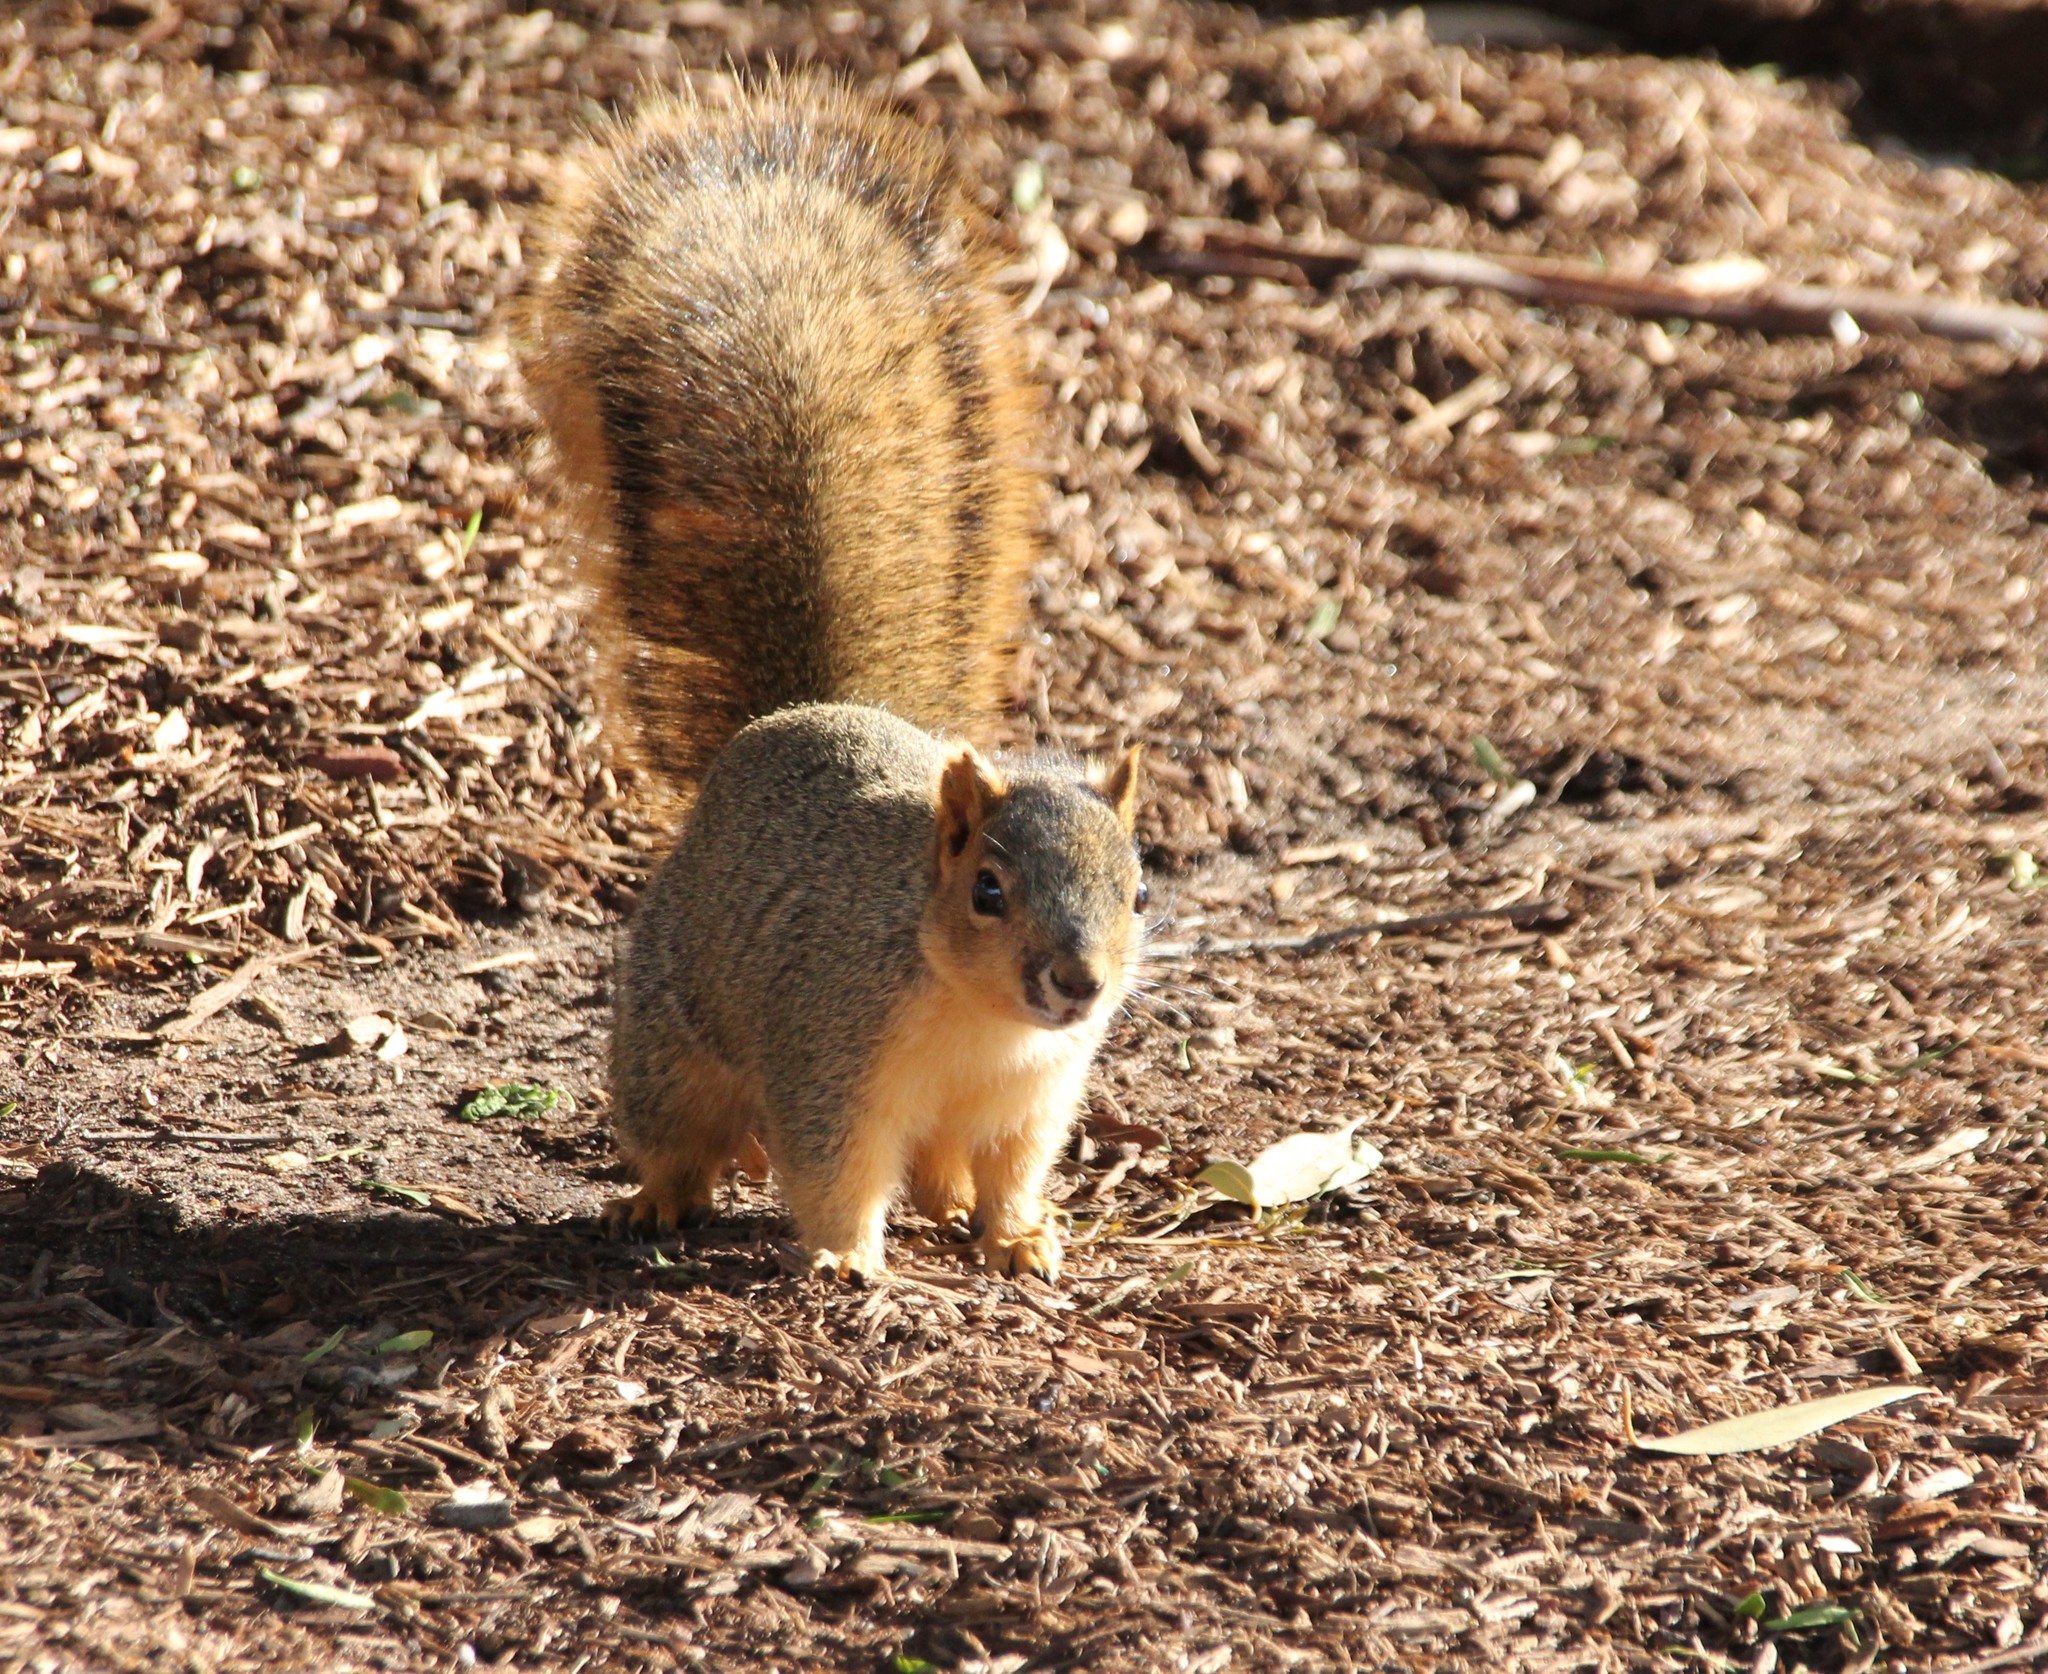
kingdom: Animalia
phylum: Chordata
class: Mammalia
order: Rodentia
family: Sciuridae
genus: Sciurus
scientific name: Sciurus niger
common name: Fox squirrel
